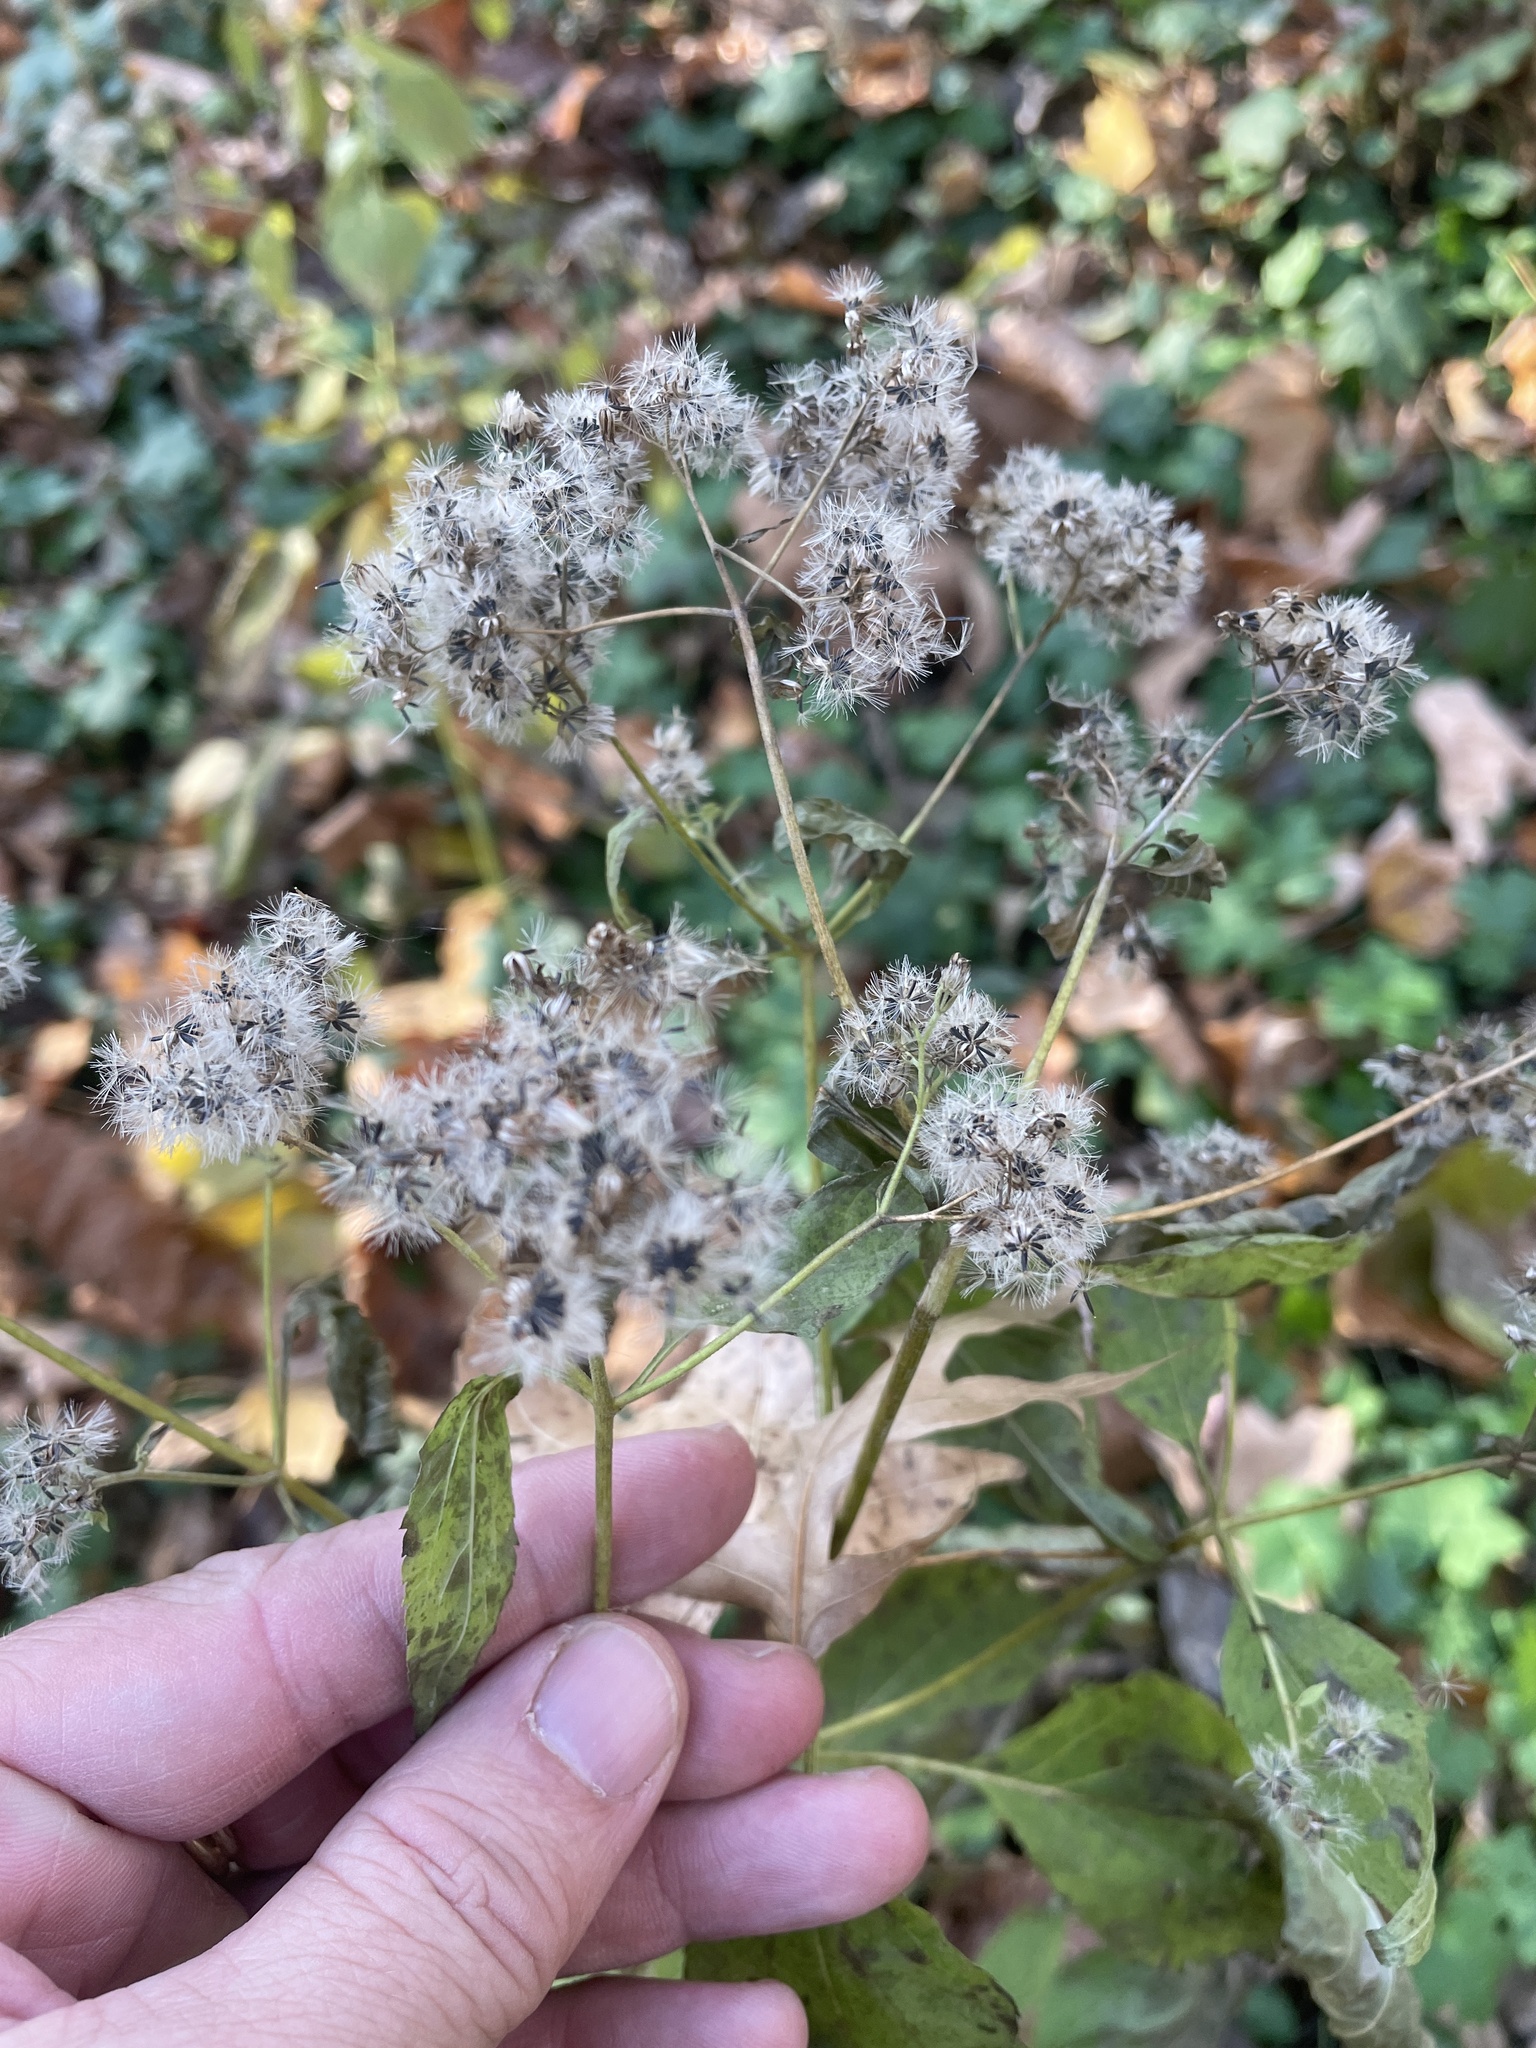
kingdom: Plantae
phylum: Tracheophyta
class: Magnoliopsida
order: Asterales
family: Asteraceae
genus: Ageratina
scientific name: Ageratina altissima
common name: White snakeroot
